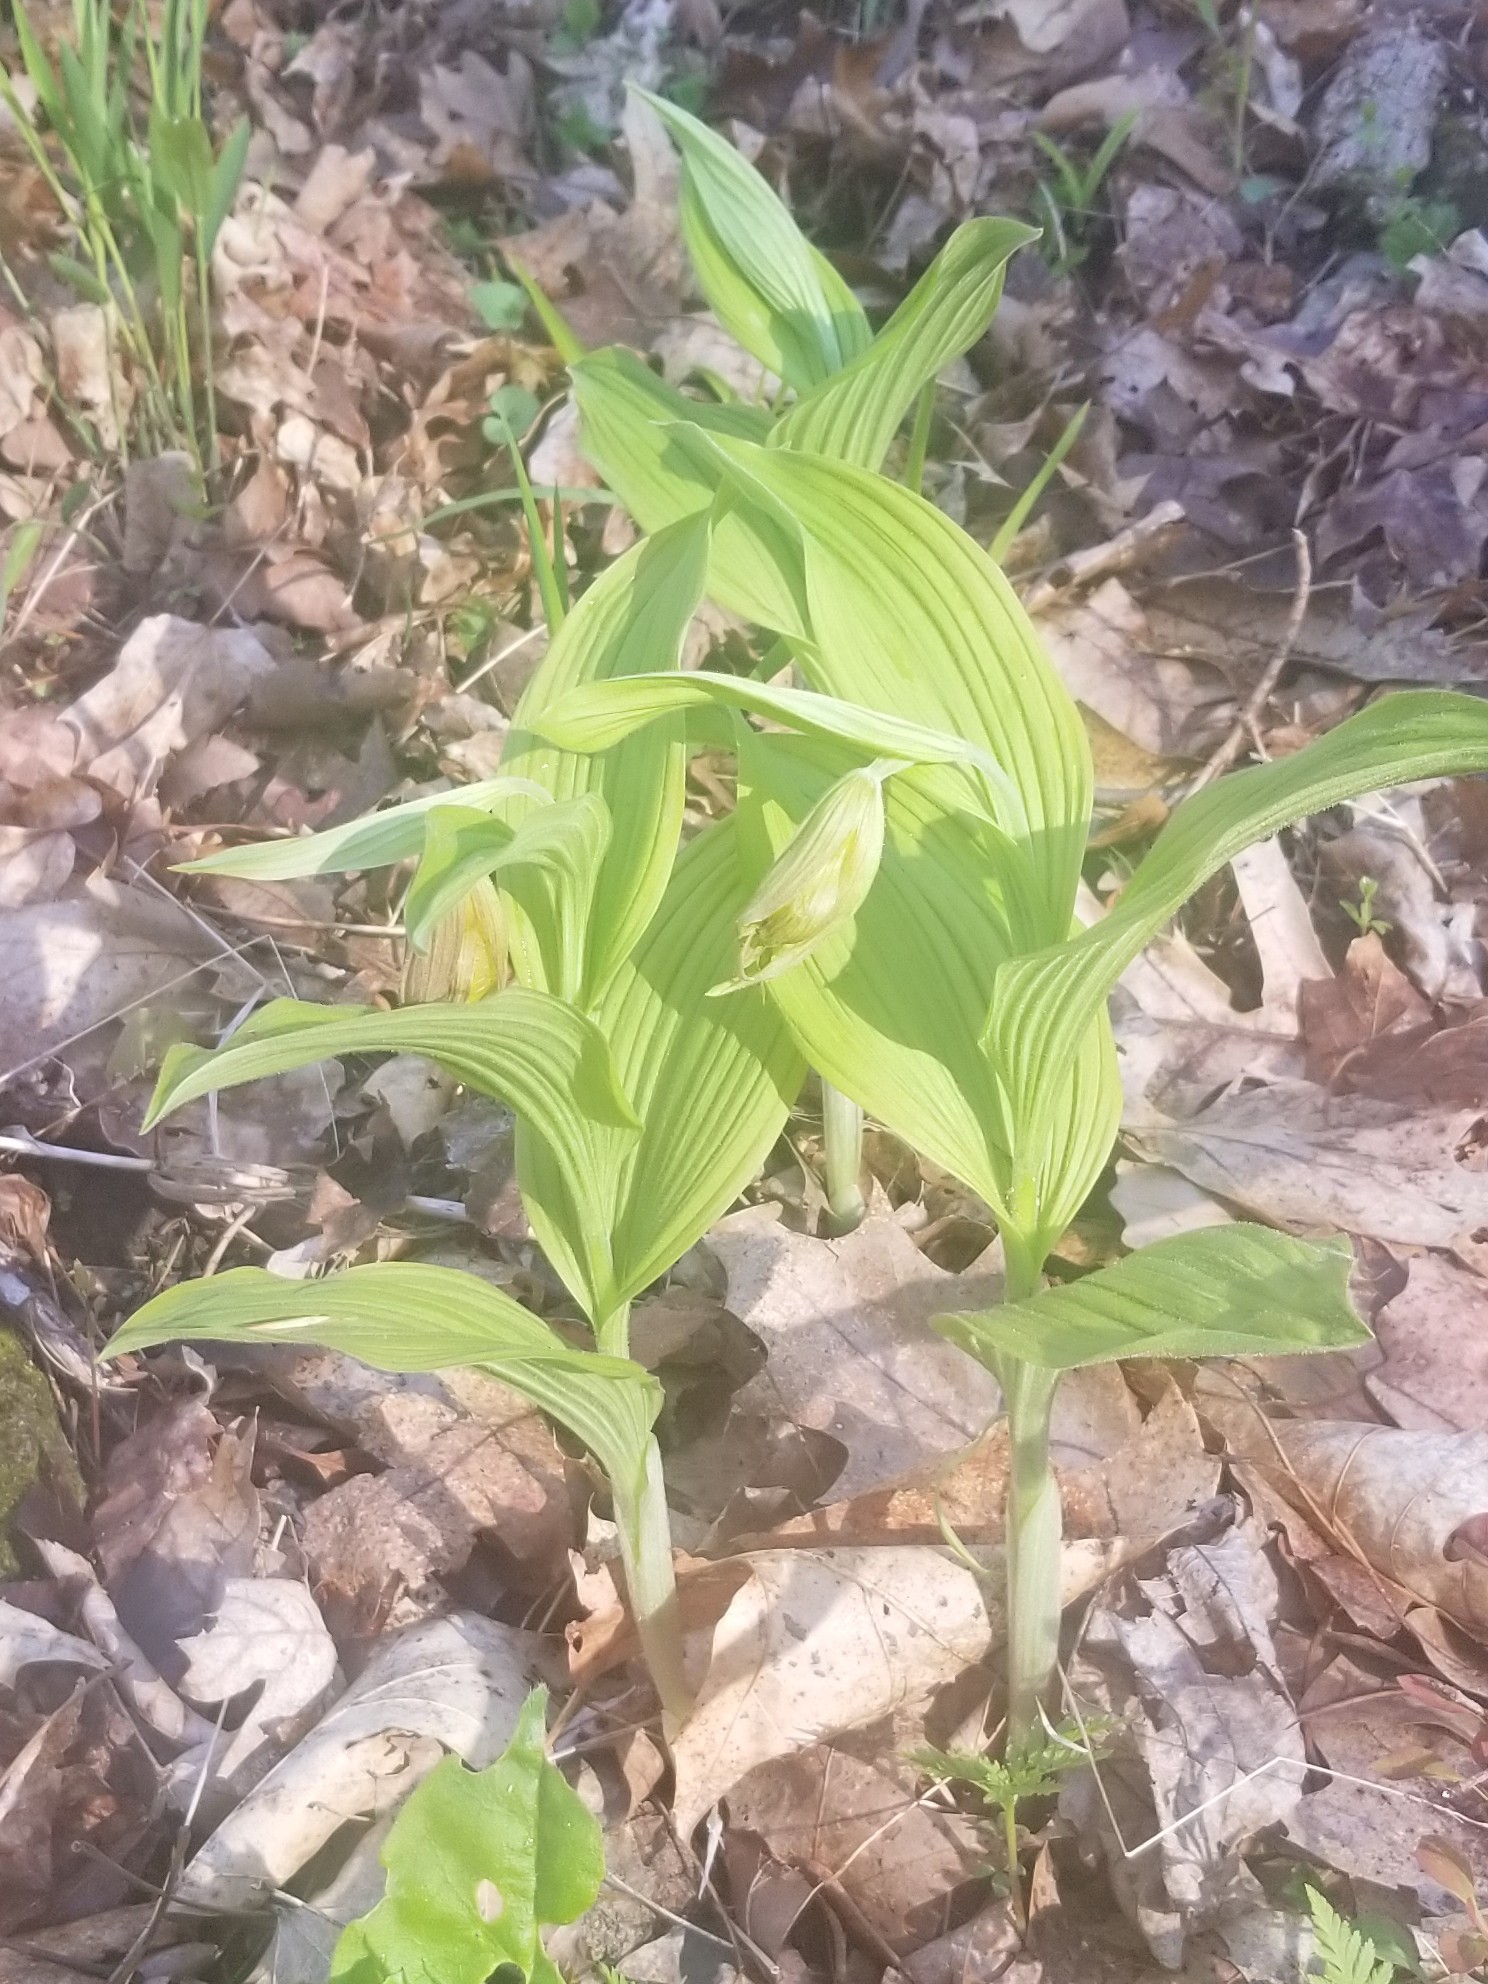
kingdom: Plantae
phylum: Tracheophyta
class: Liliopsida
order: Asparagales
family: Orchidaceae
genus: Cypripedium
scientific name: Cypripedium parviflorum
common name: American yellow lady's-slipper
